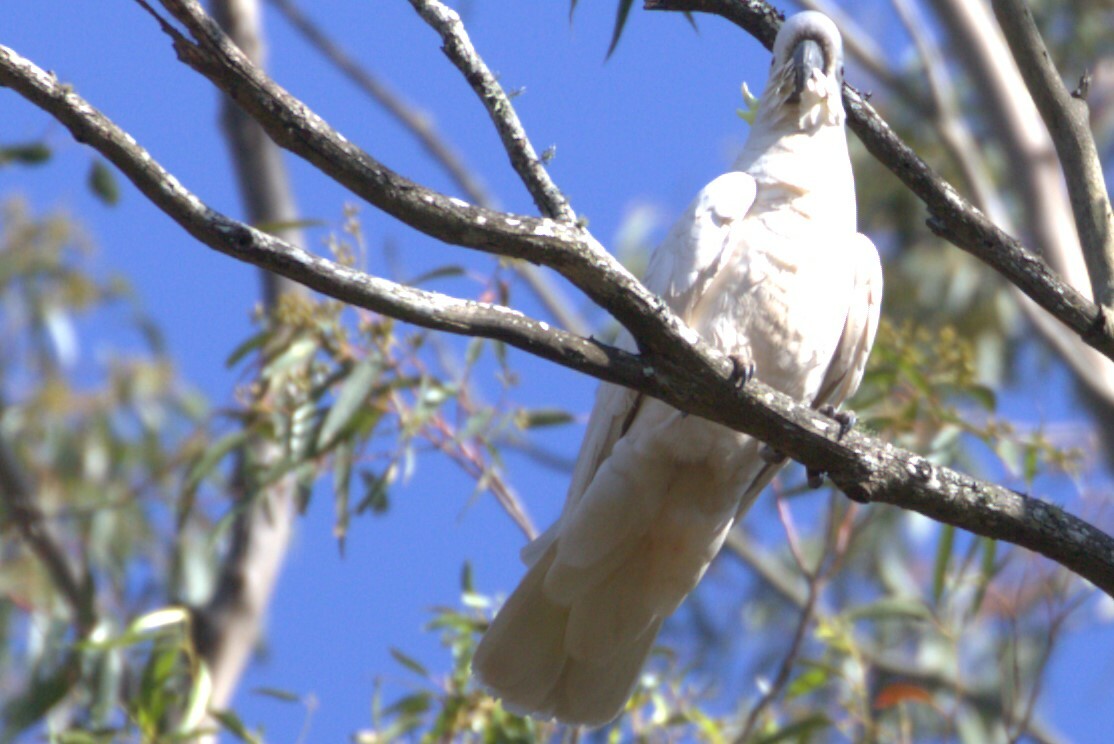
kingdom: Animalia
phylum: Chordata
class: Aves
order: Psittaciformes
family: Psittacidae
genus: Cacatua
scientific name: Cacatua galerita
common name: Sulphur-crested cockatoo
